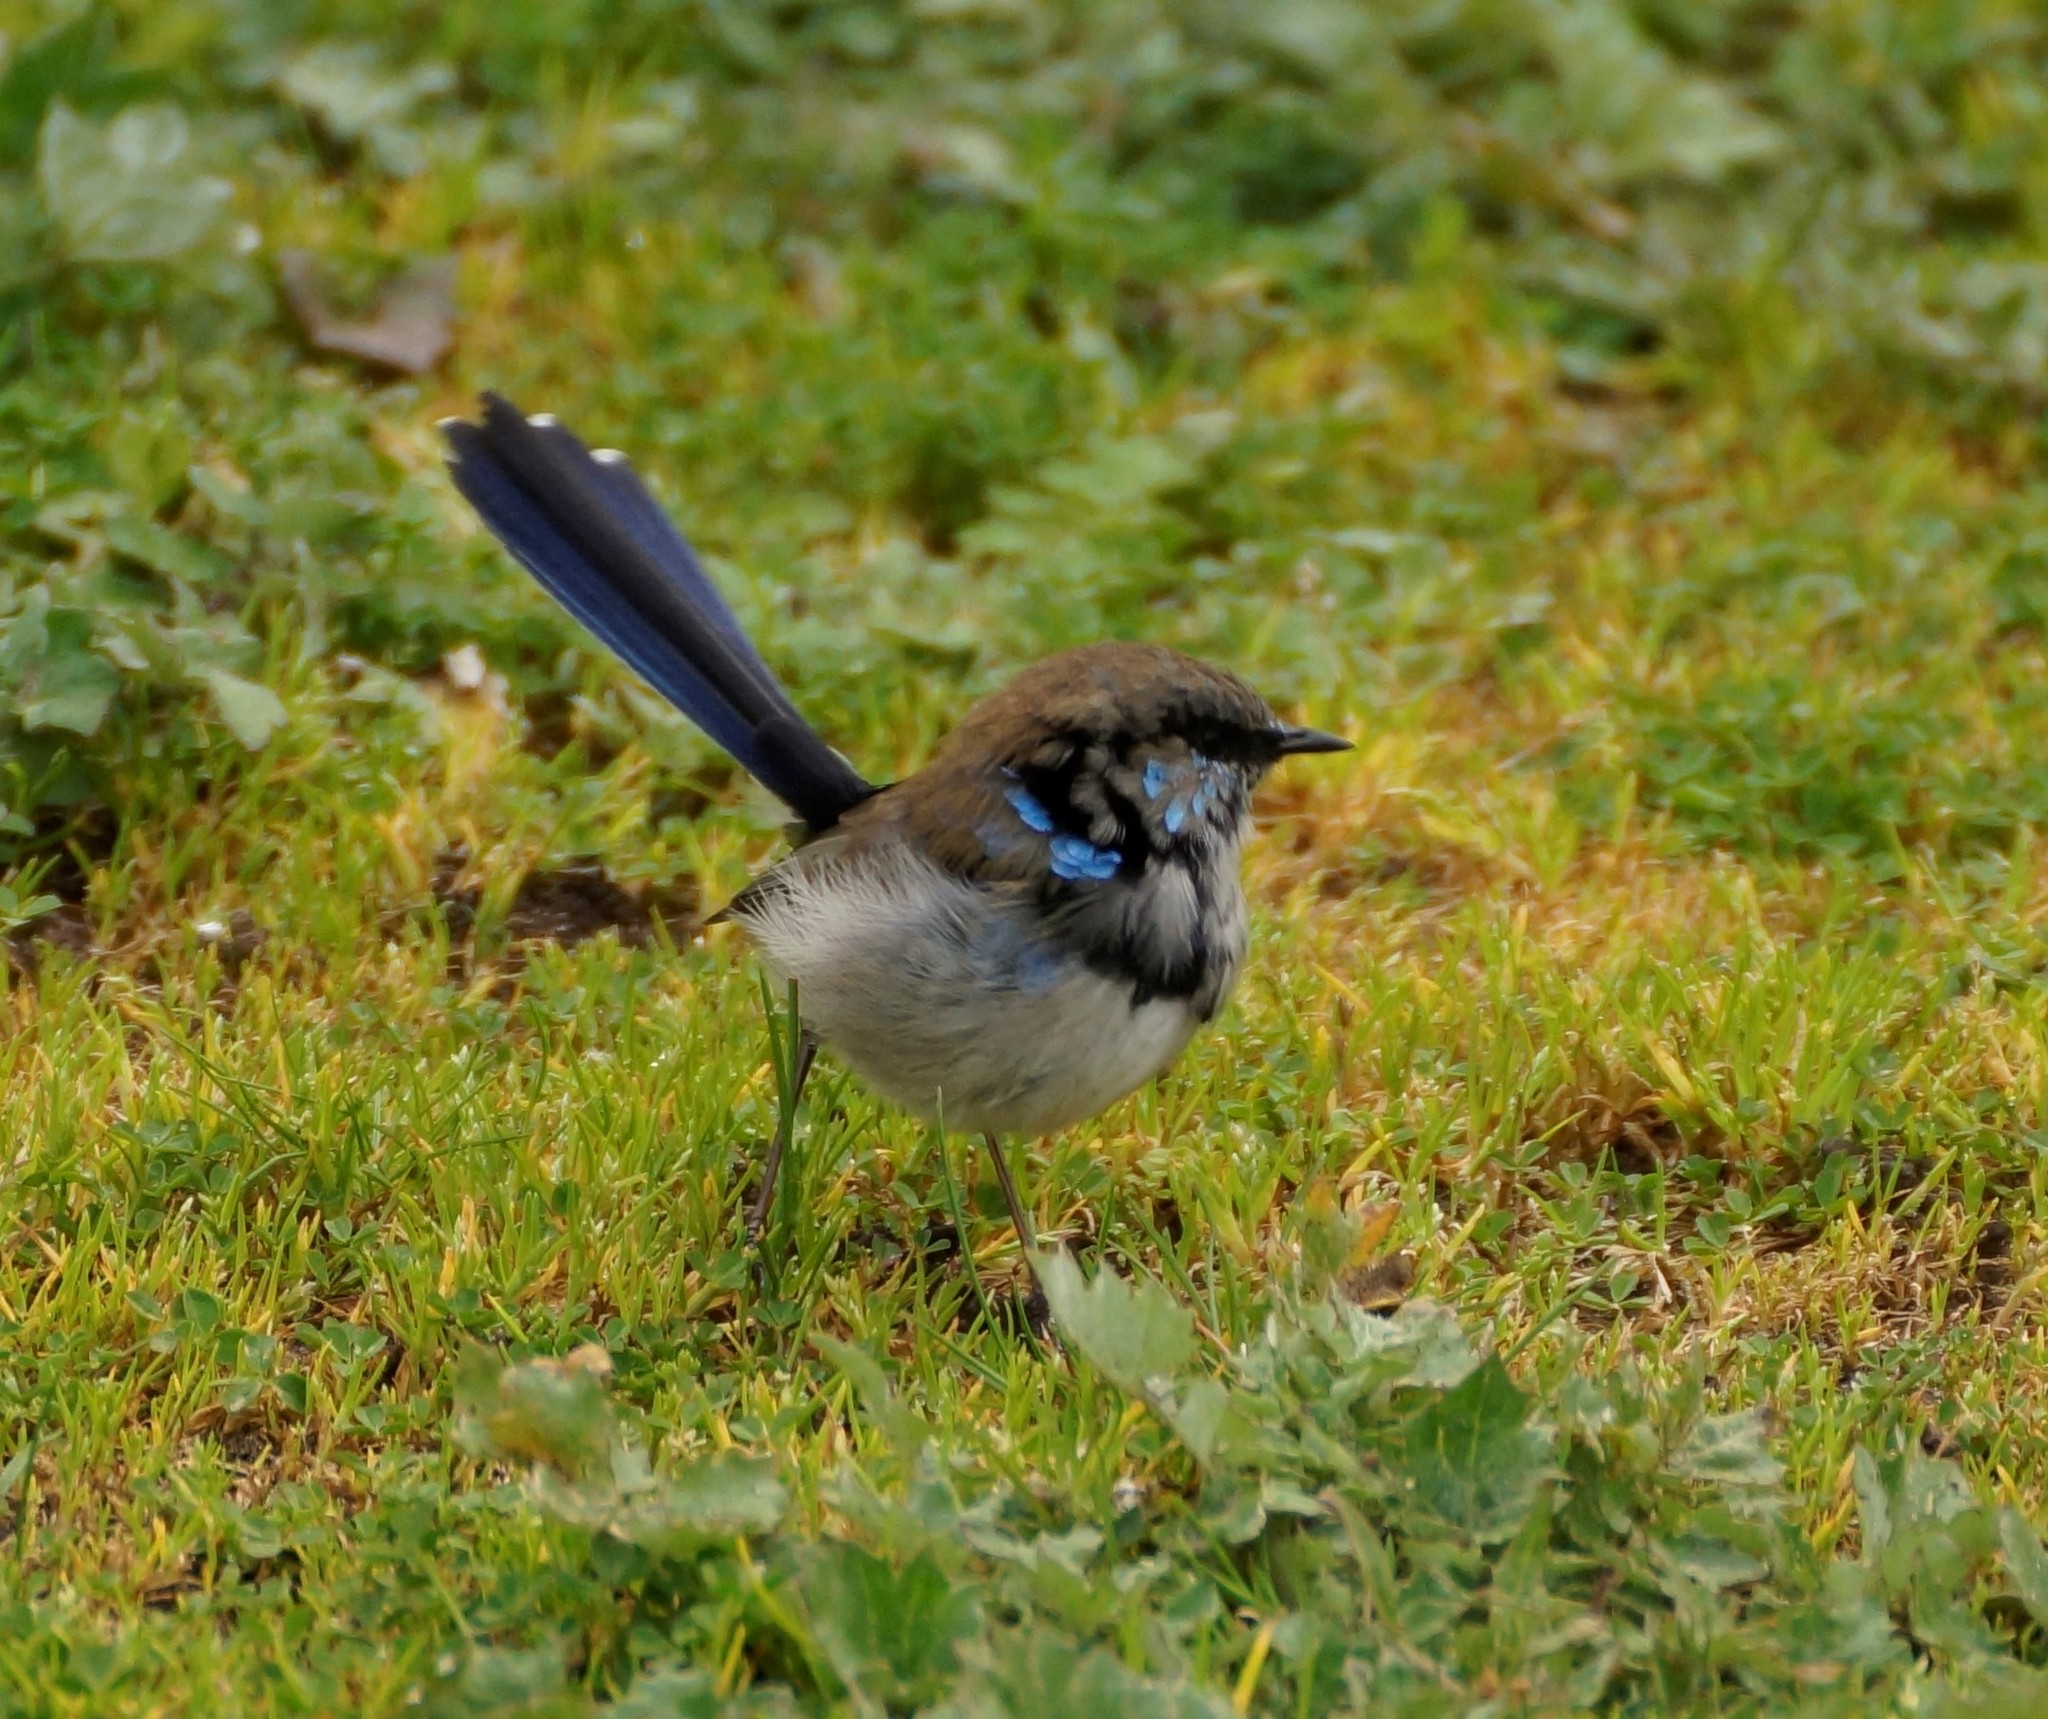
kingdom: Animalia
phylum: Chordata
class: Aves
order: Passeriformes
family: Maluridae
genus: Malurus
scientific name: Malurus cyaneus
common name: Superb fairywren
